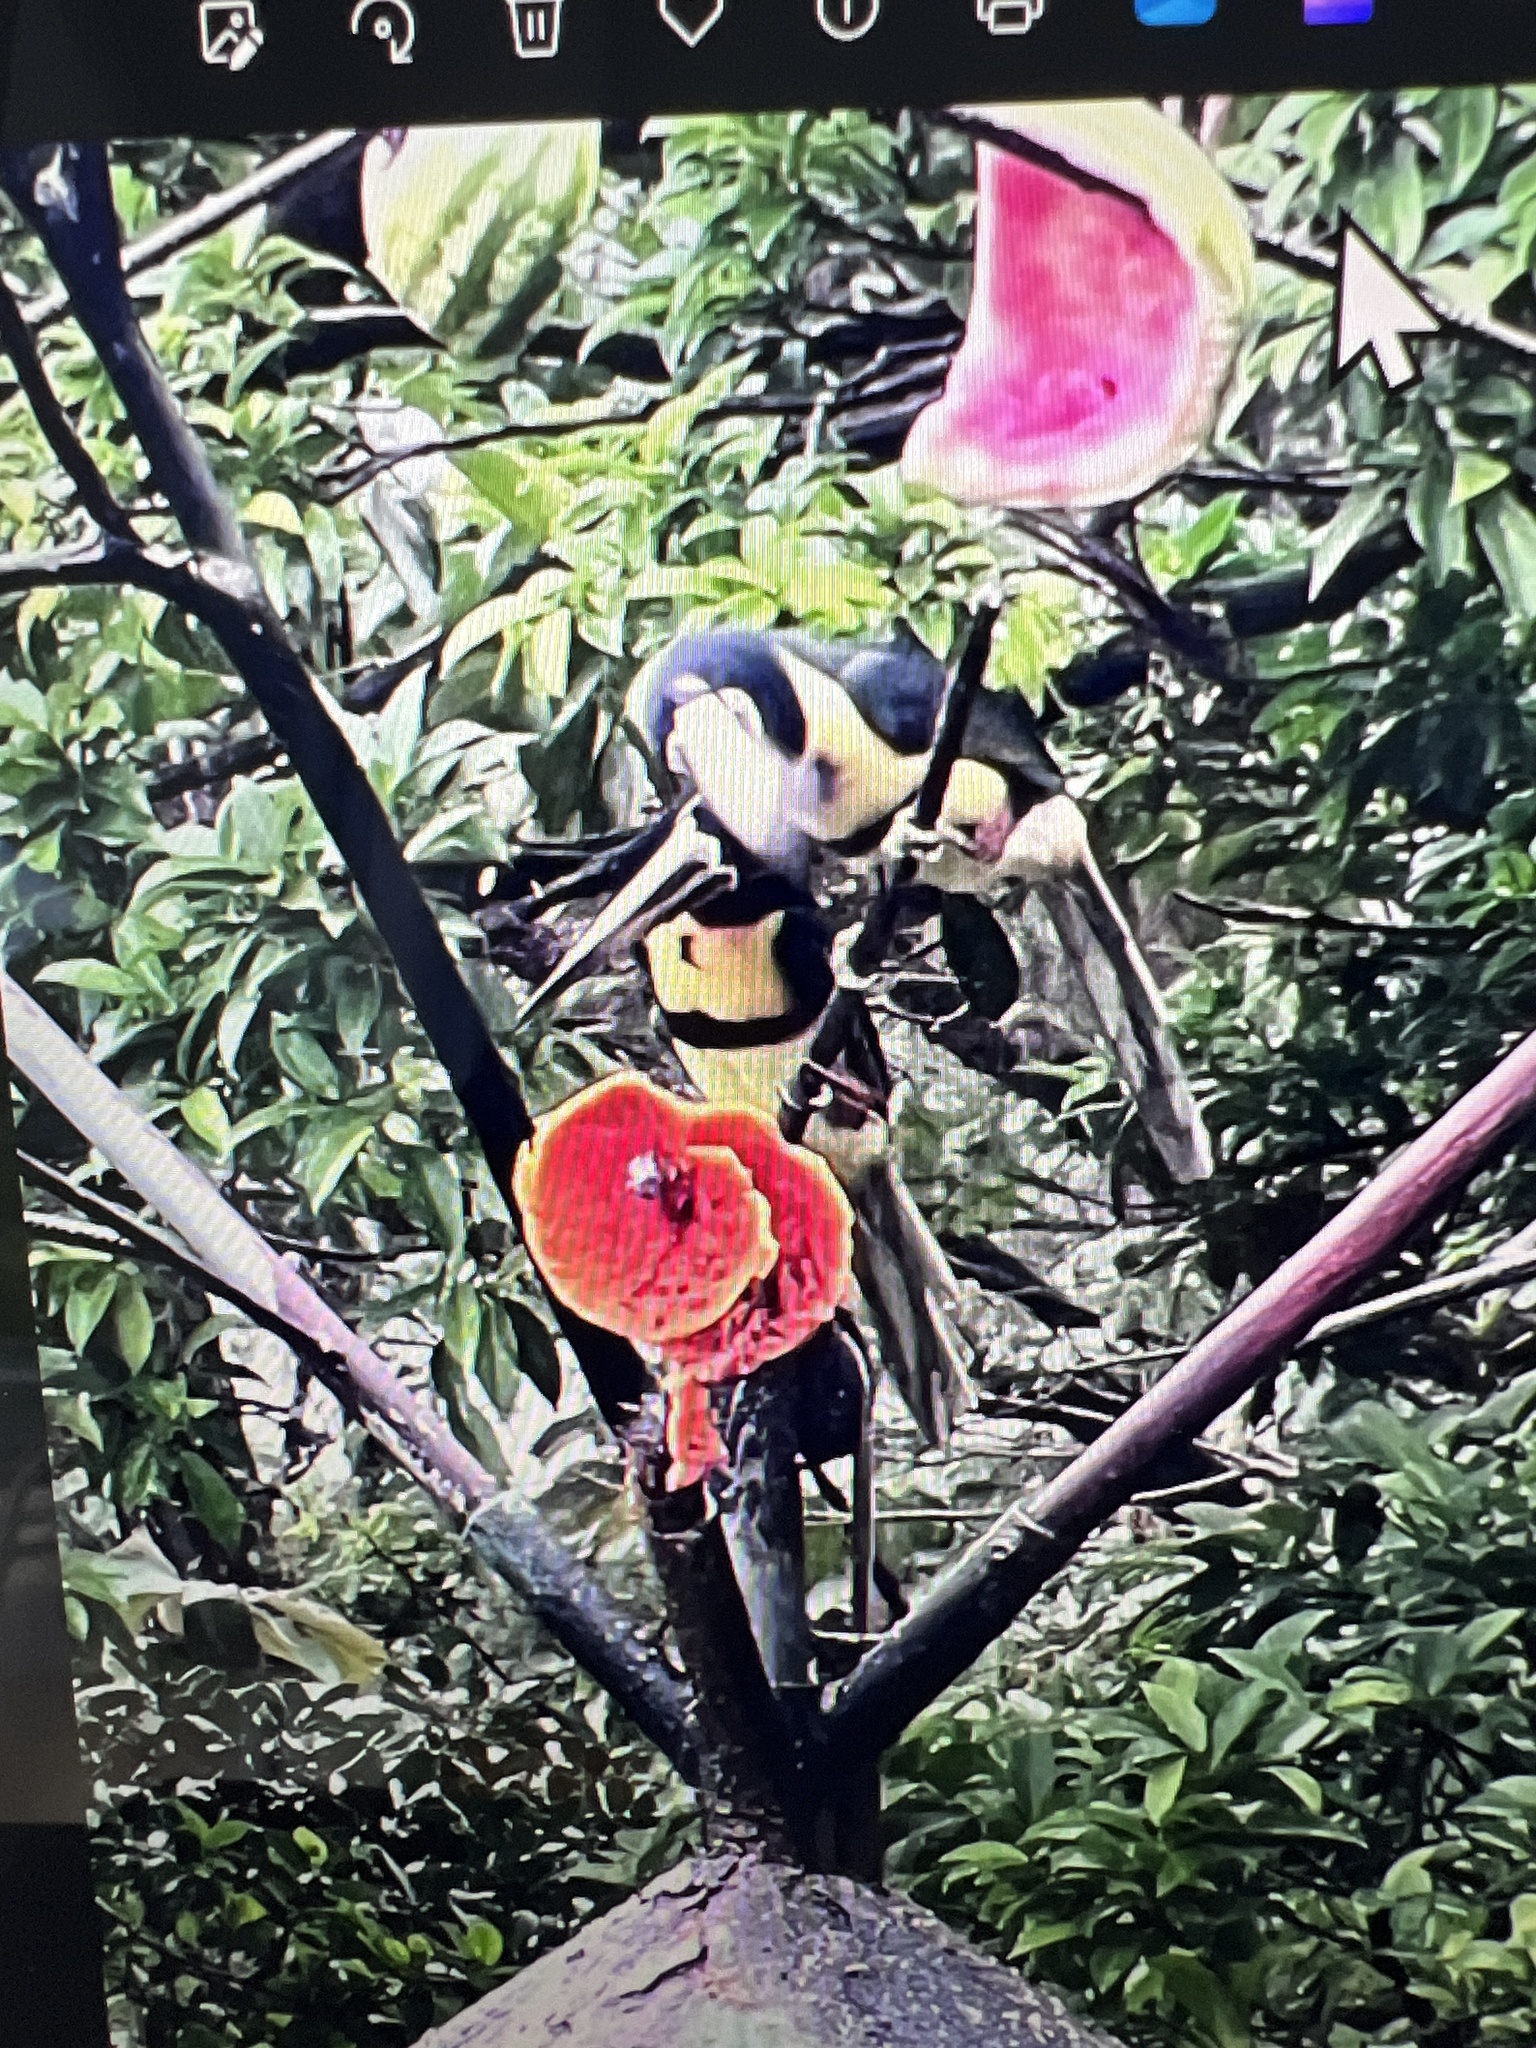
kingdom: Animalia
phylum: Chordata
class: Aves
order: Piciformes
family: Ramphastidae
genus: Pteroglossus
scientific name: Pteroglossus torquatus
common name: Collared aracari
